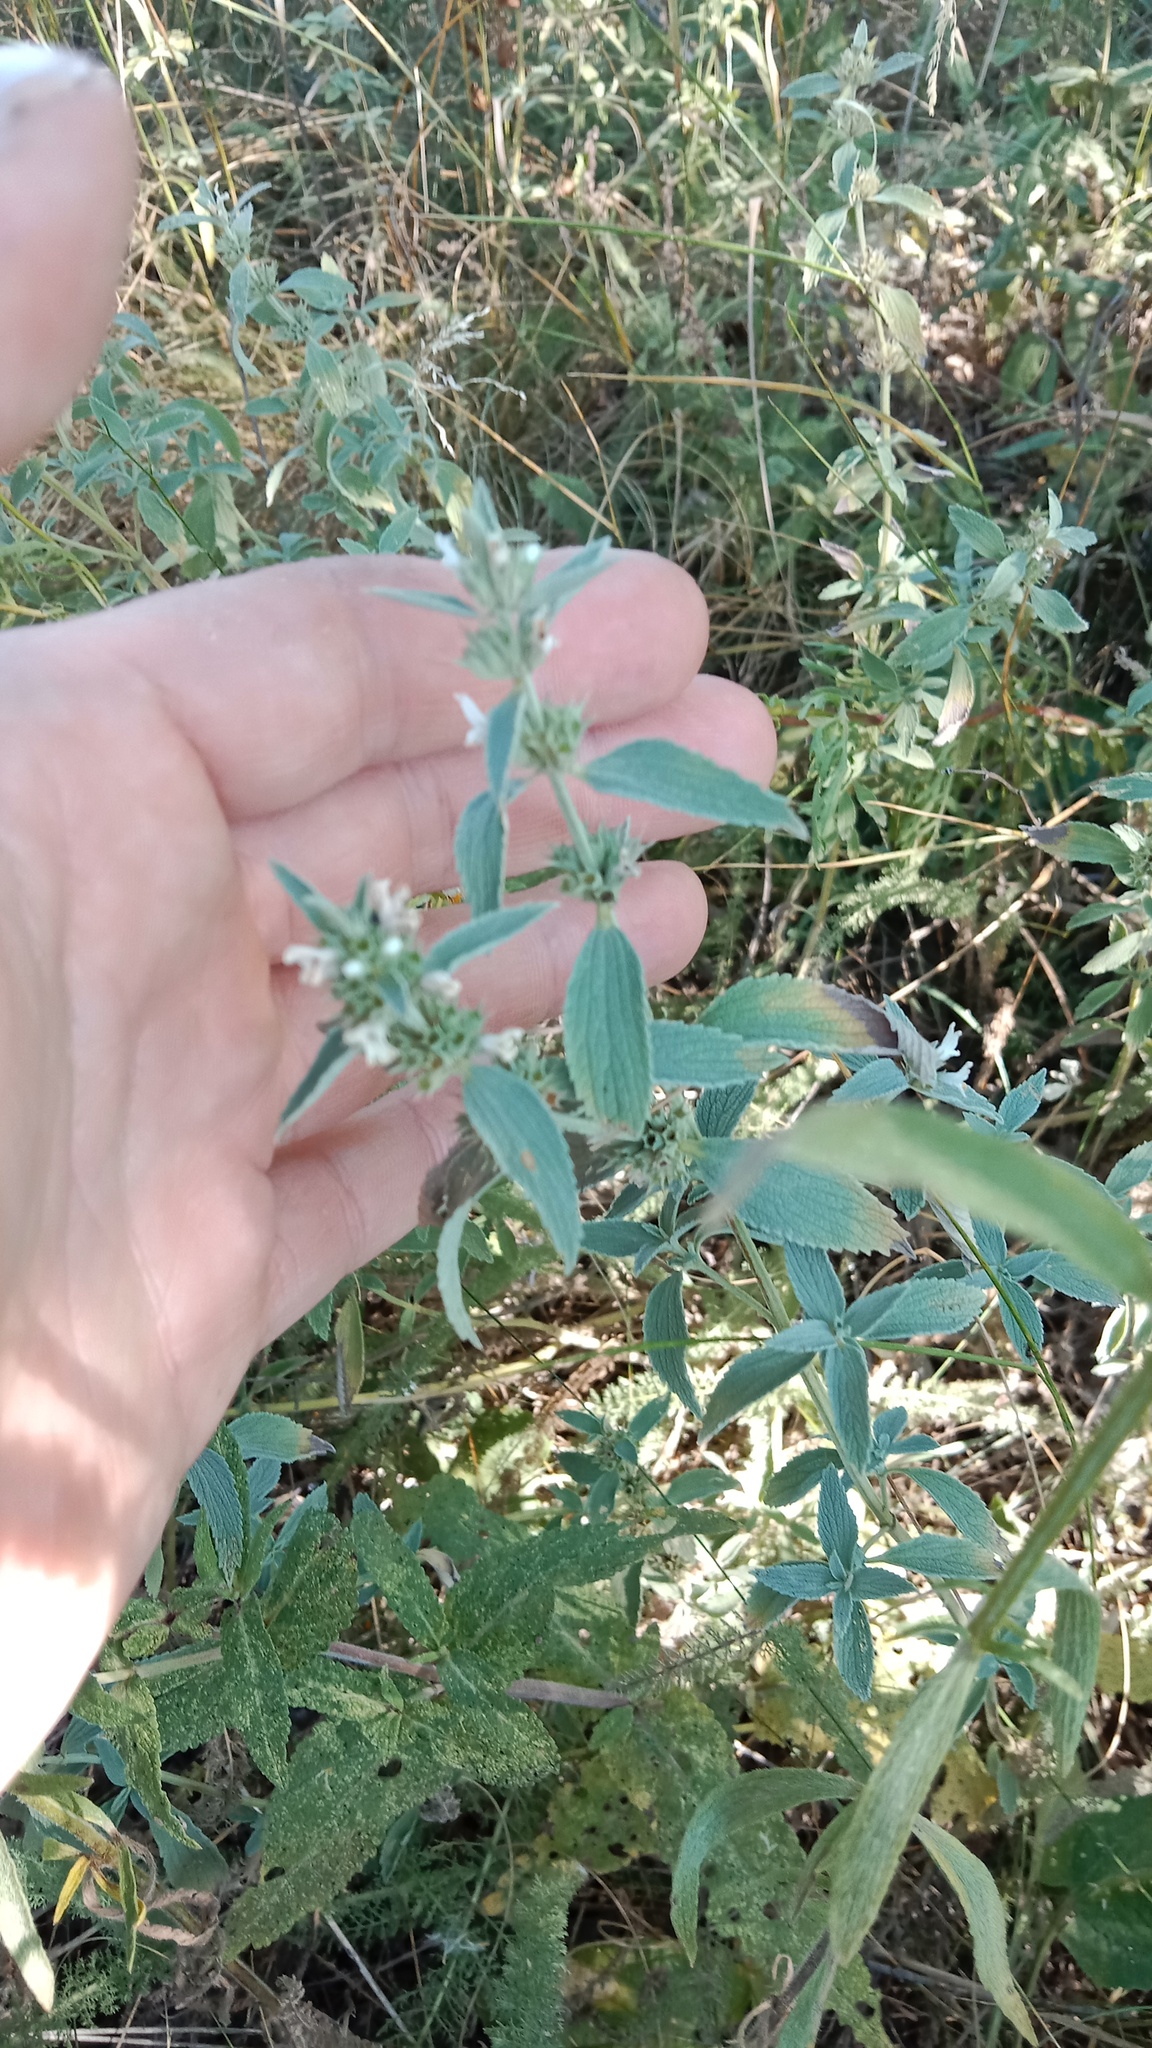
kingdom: Plantae
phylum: Tracheophyta
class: Magnoliopsida
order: Lamiales
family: Lamiaceae
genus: Marrubium
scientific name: Marrubium peregrinum
